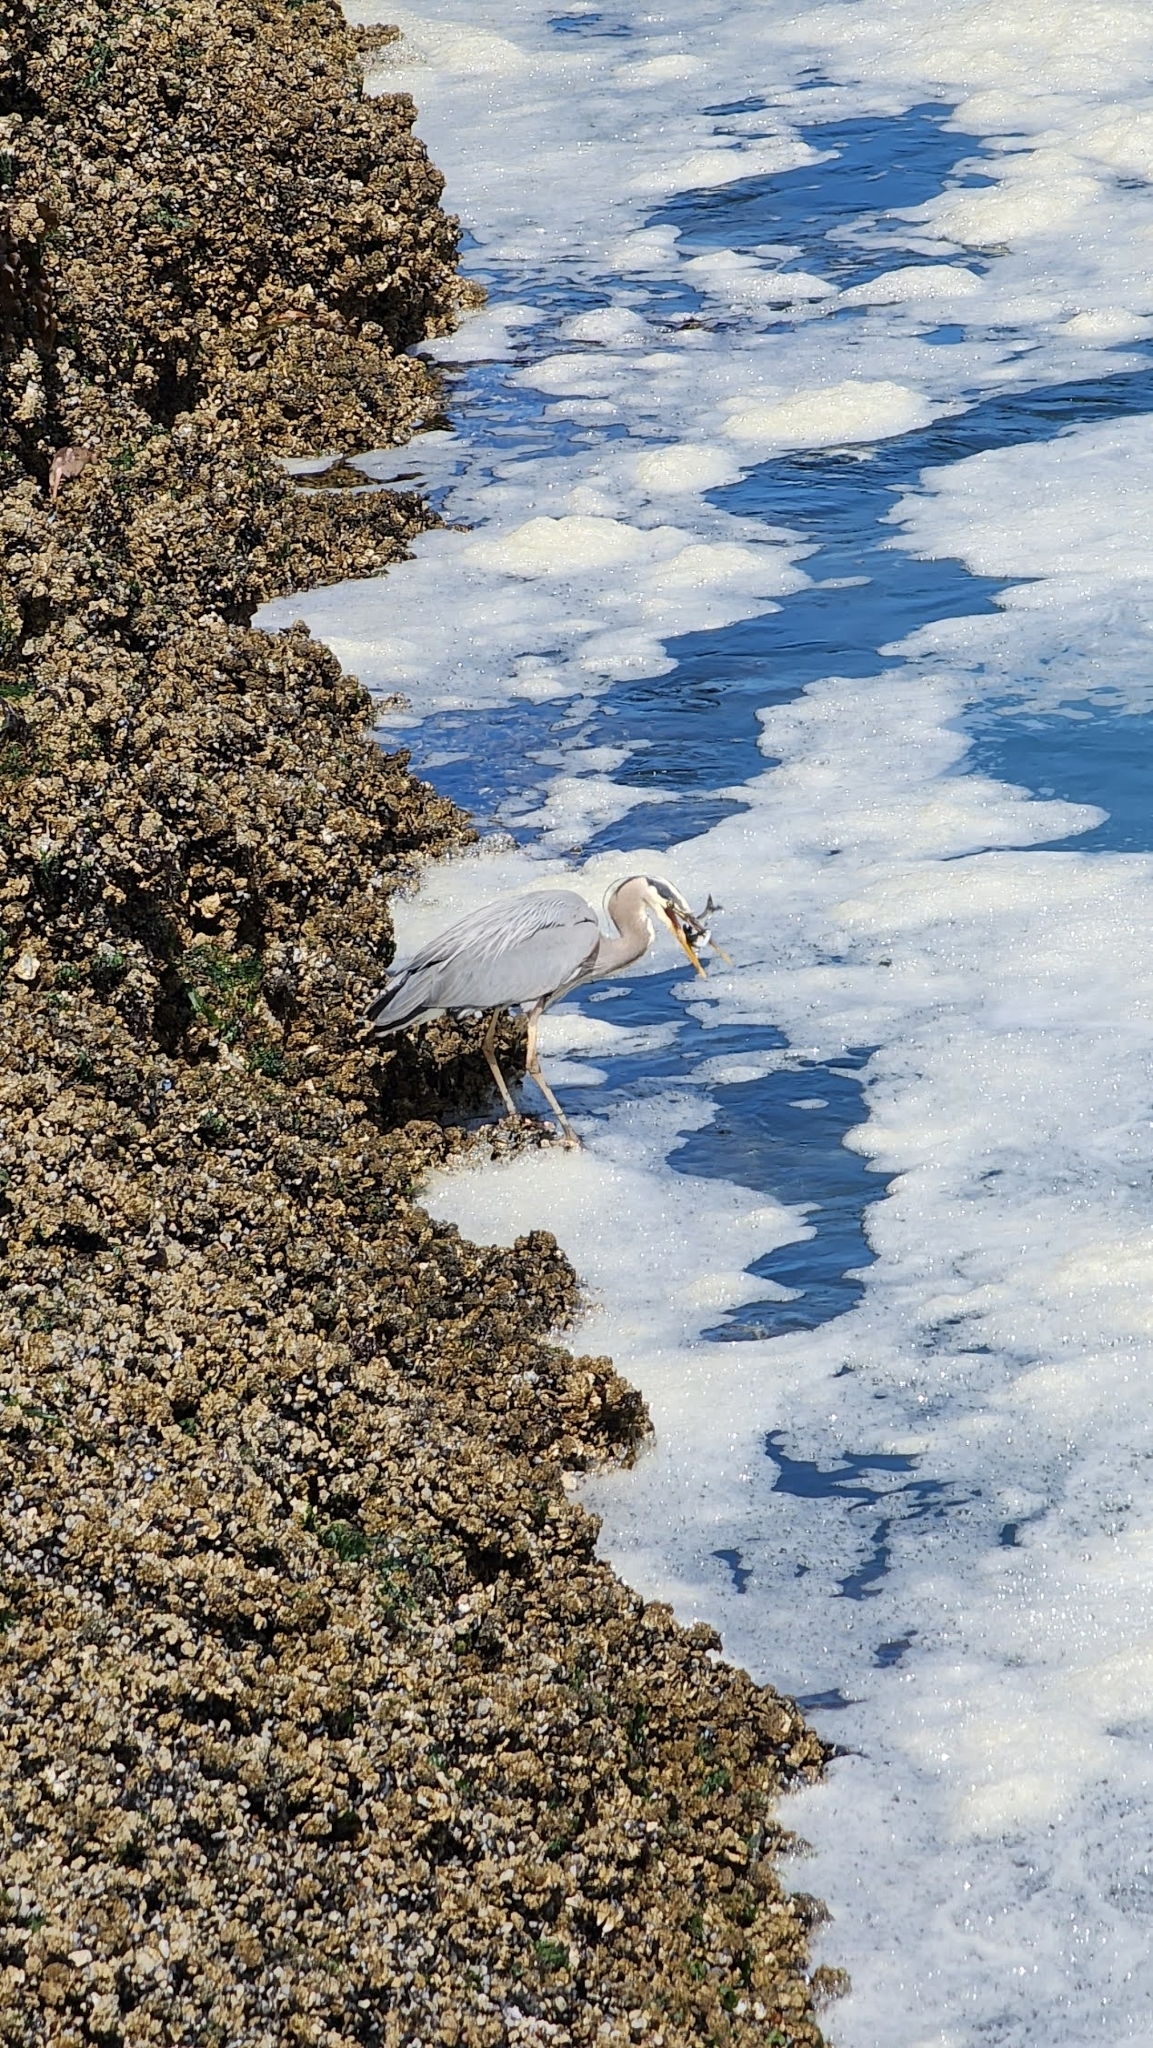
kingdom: Animalia
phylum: Chordata
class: Aves
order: Pelecaniformes
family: Ardeidae
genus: Ardea
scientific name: Ardea herodias
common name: Great blue heron
